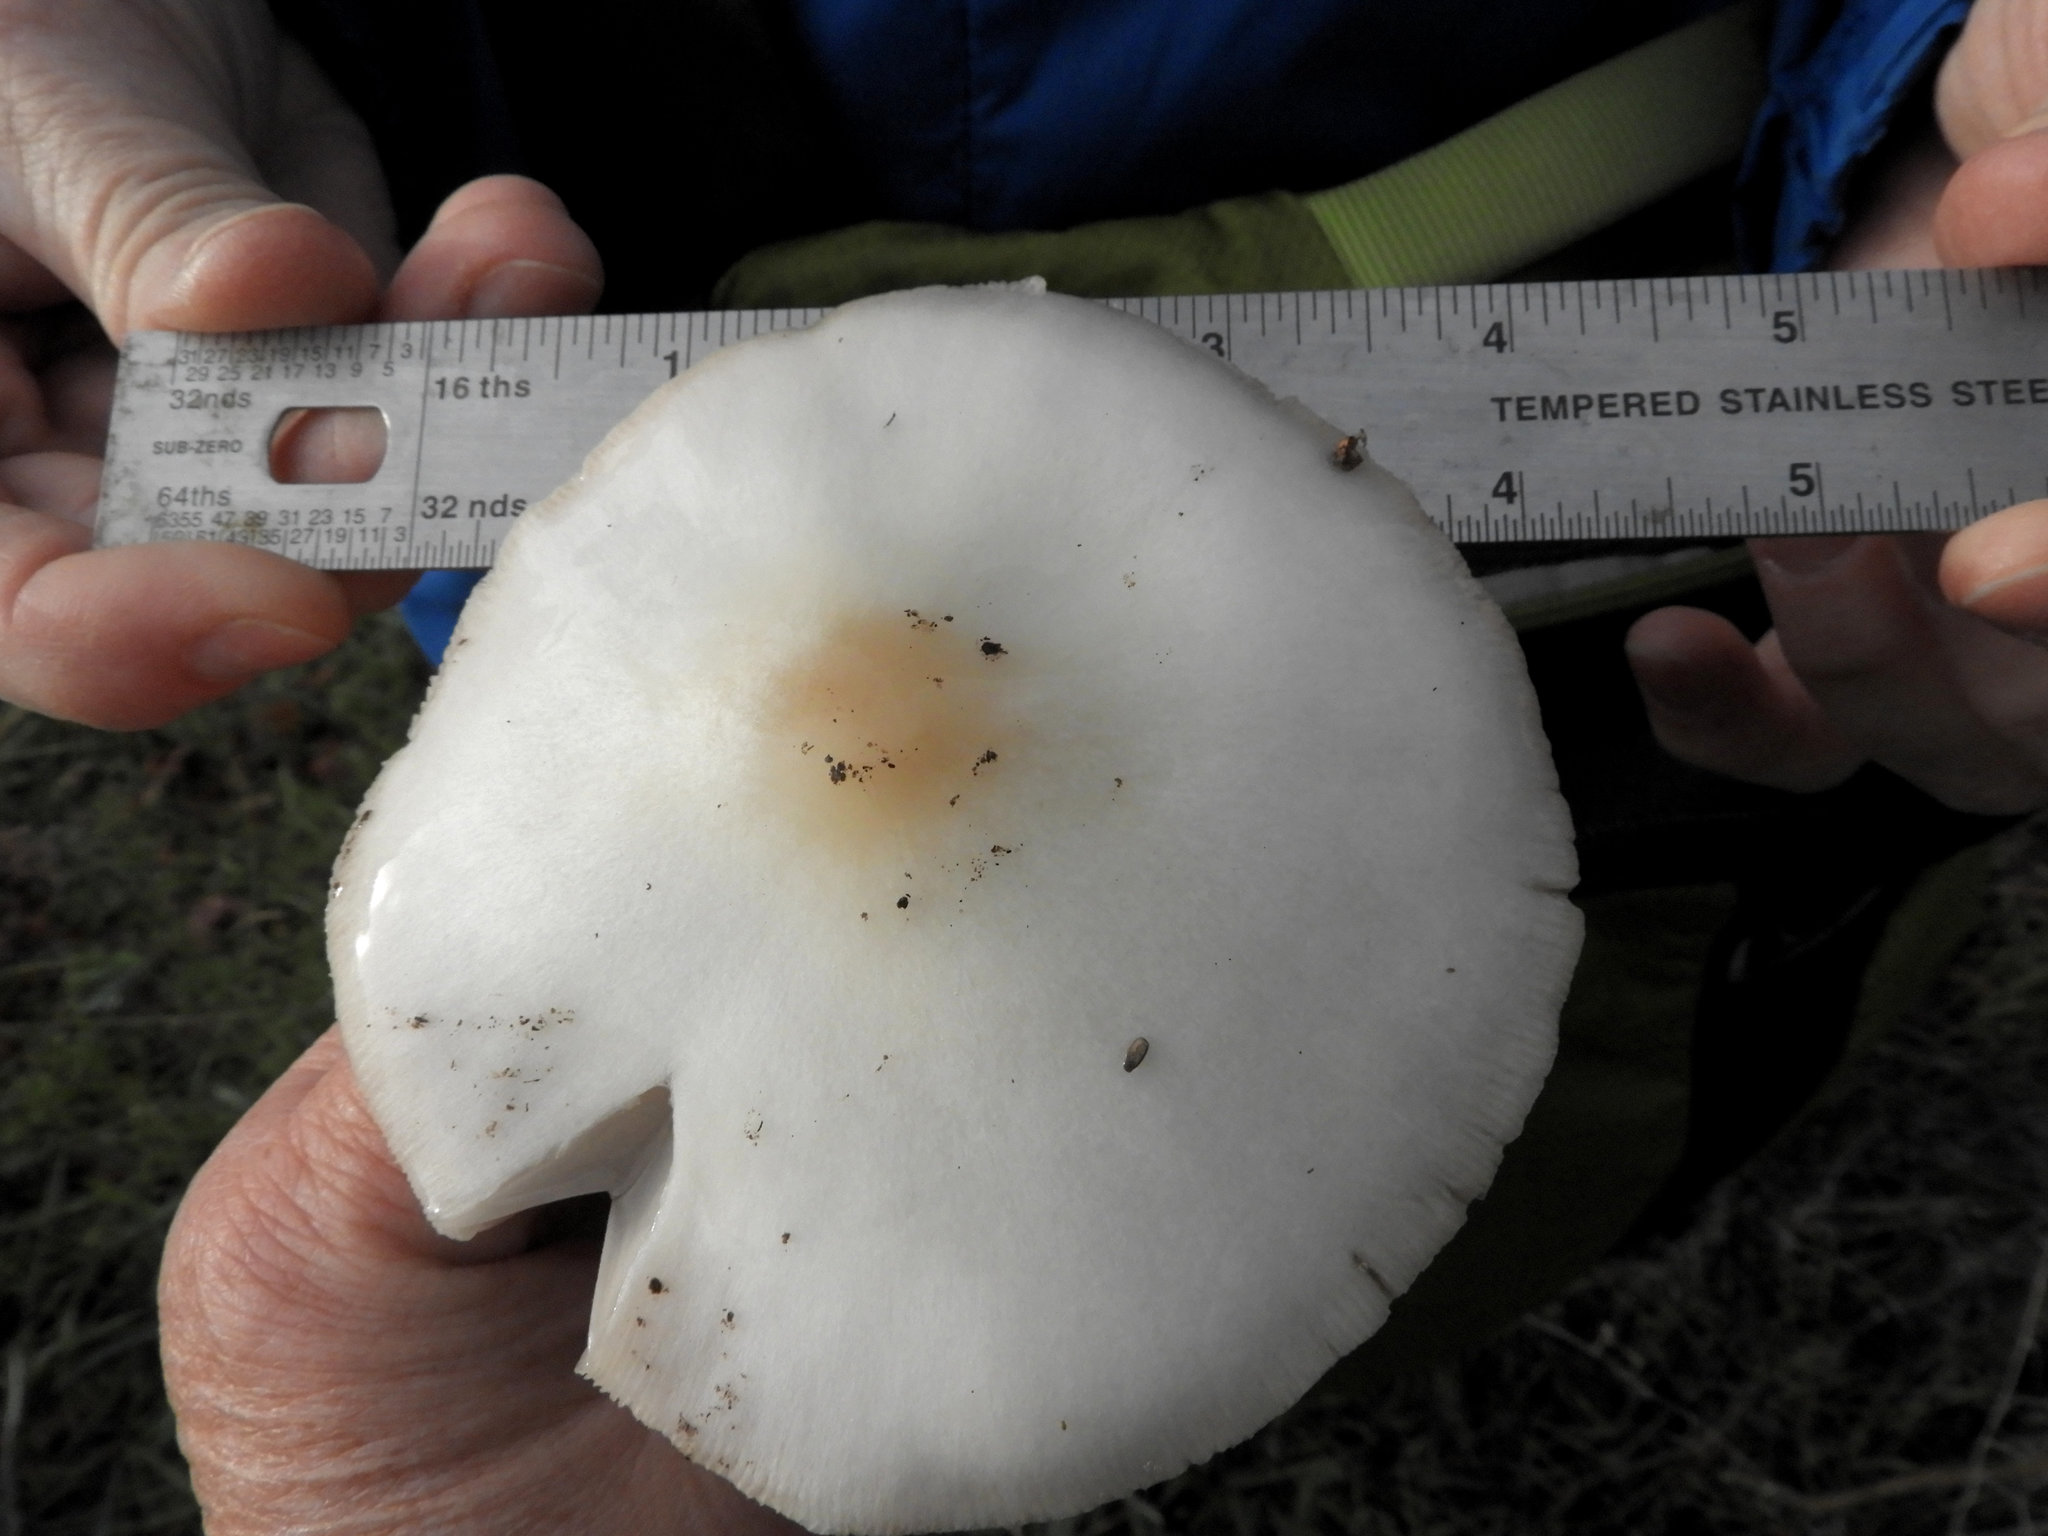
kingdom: Fungi
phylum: Basidiomycota
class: Agaricomycetes
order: Agaricales
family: Pluteaceae
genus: Volvopluteus
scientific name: Volvopluteus gloiocephalus
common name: Stubble rosegill
